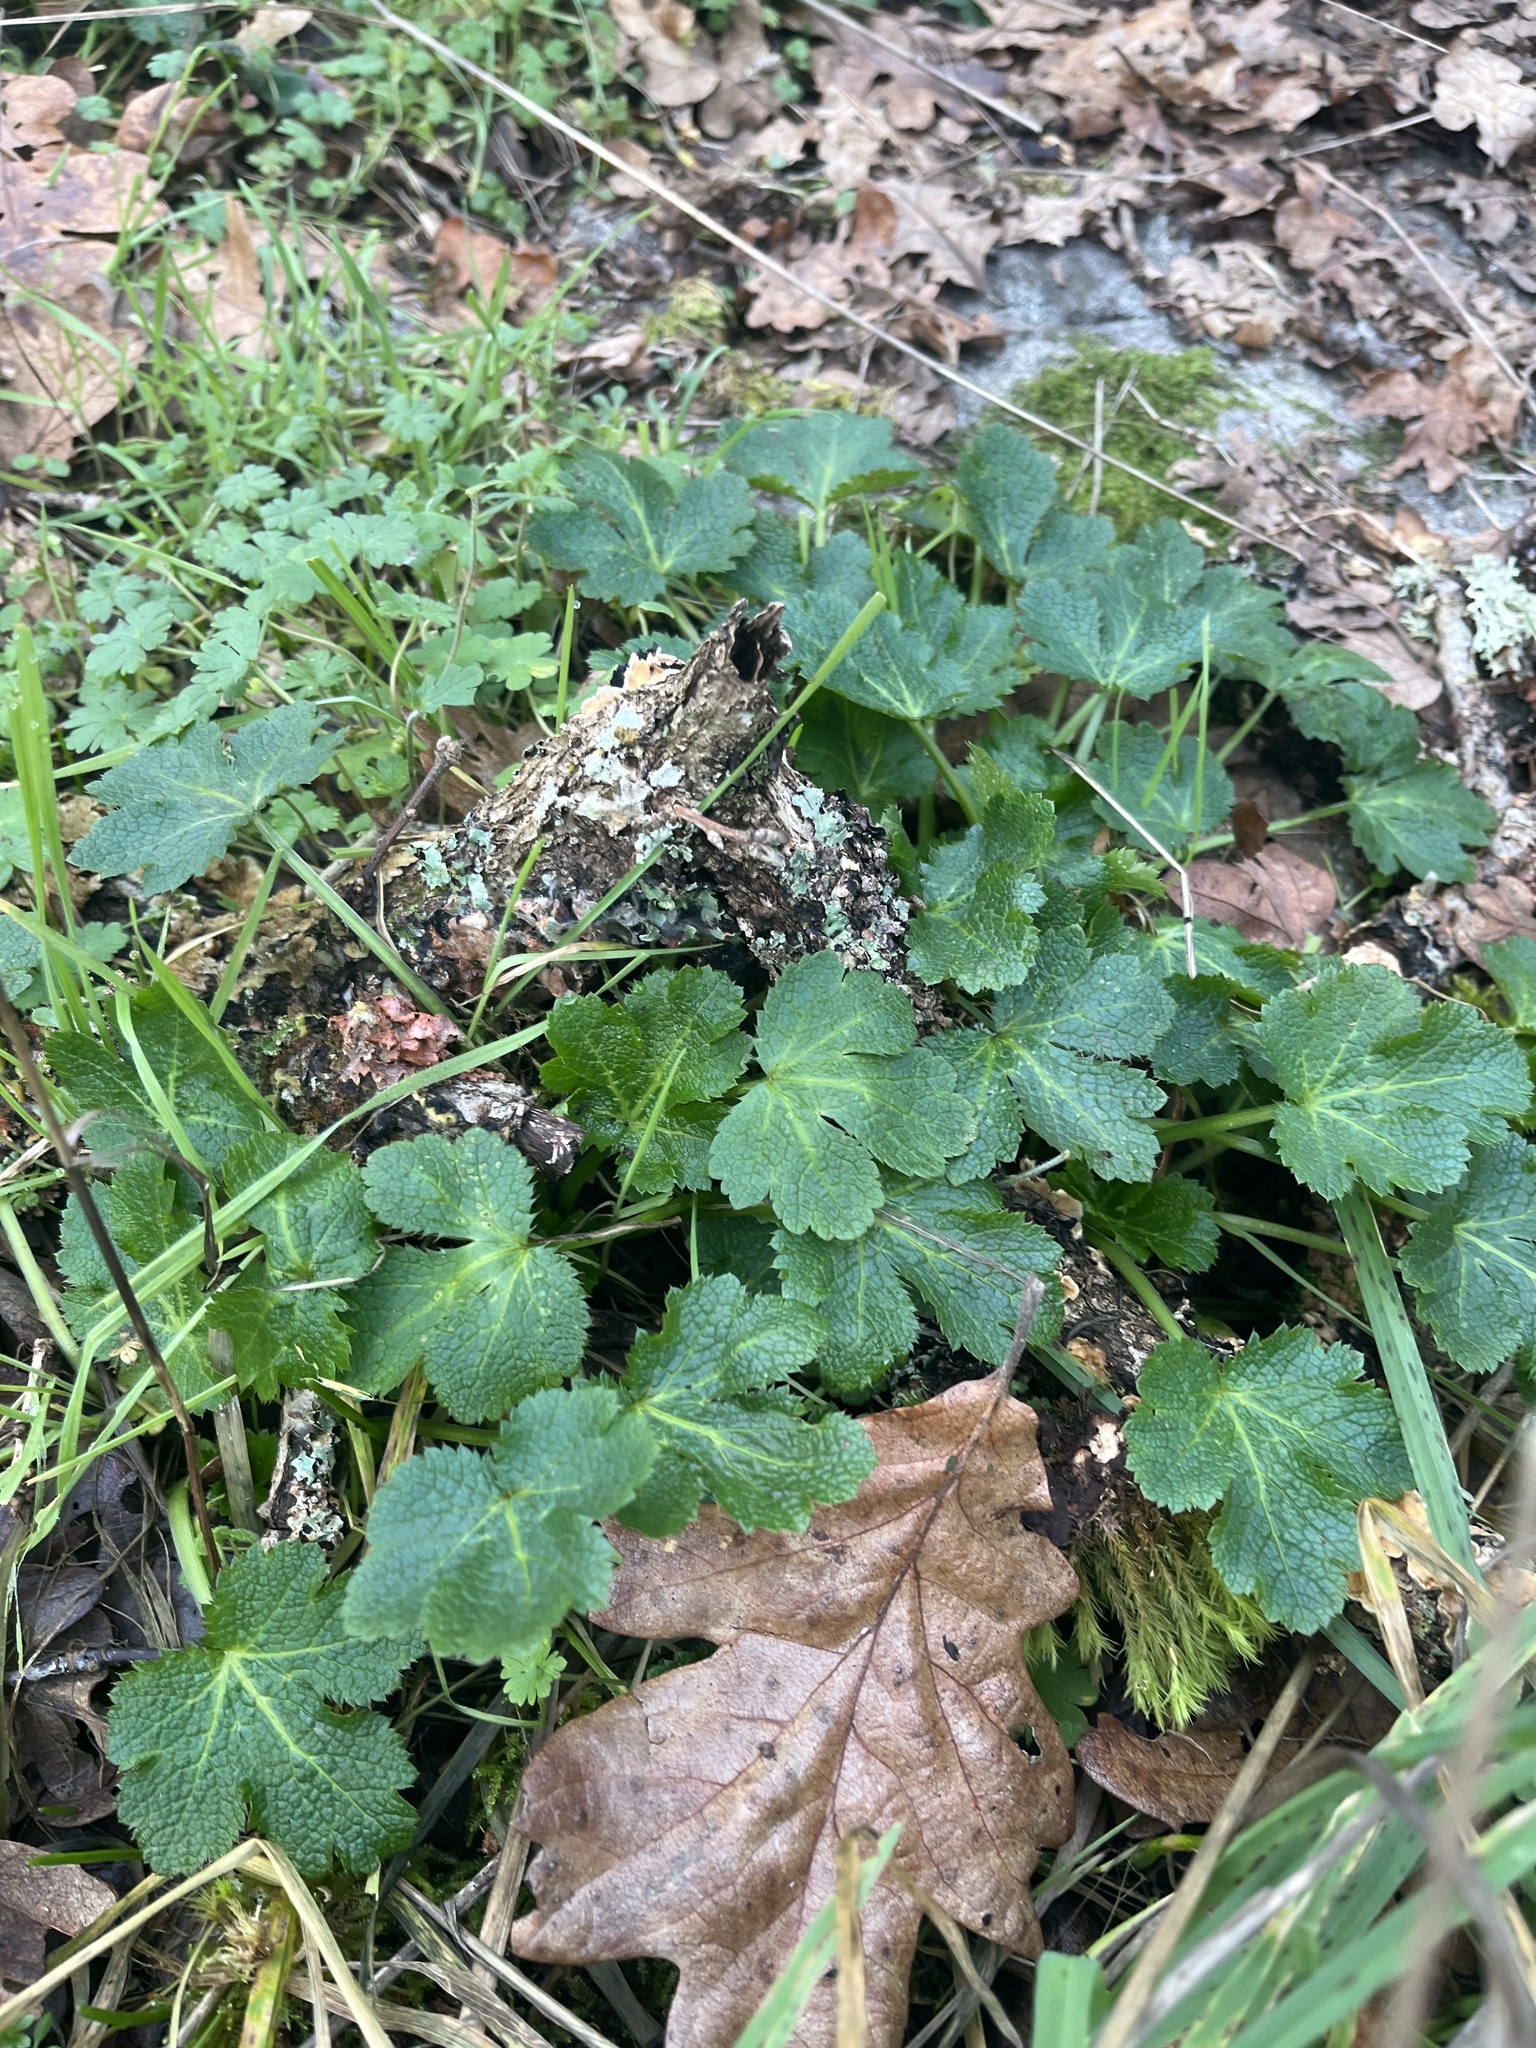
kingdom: Plantae
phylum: Tracheophyta
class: Magnoliopsida
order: Apiales
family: Apiaceae
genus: Sanicula
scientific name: Sanicula crassicaulis
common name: Western snakeroot
